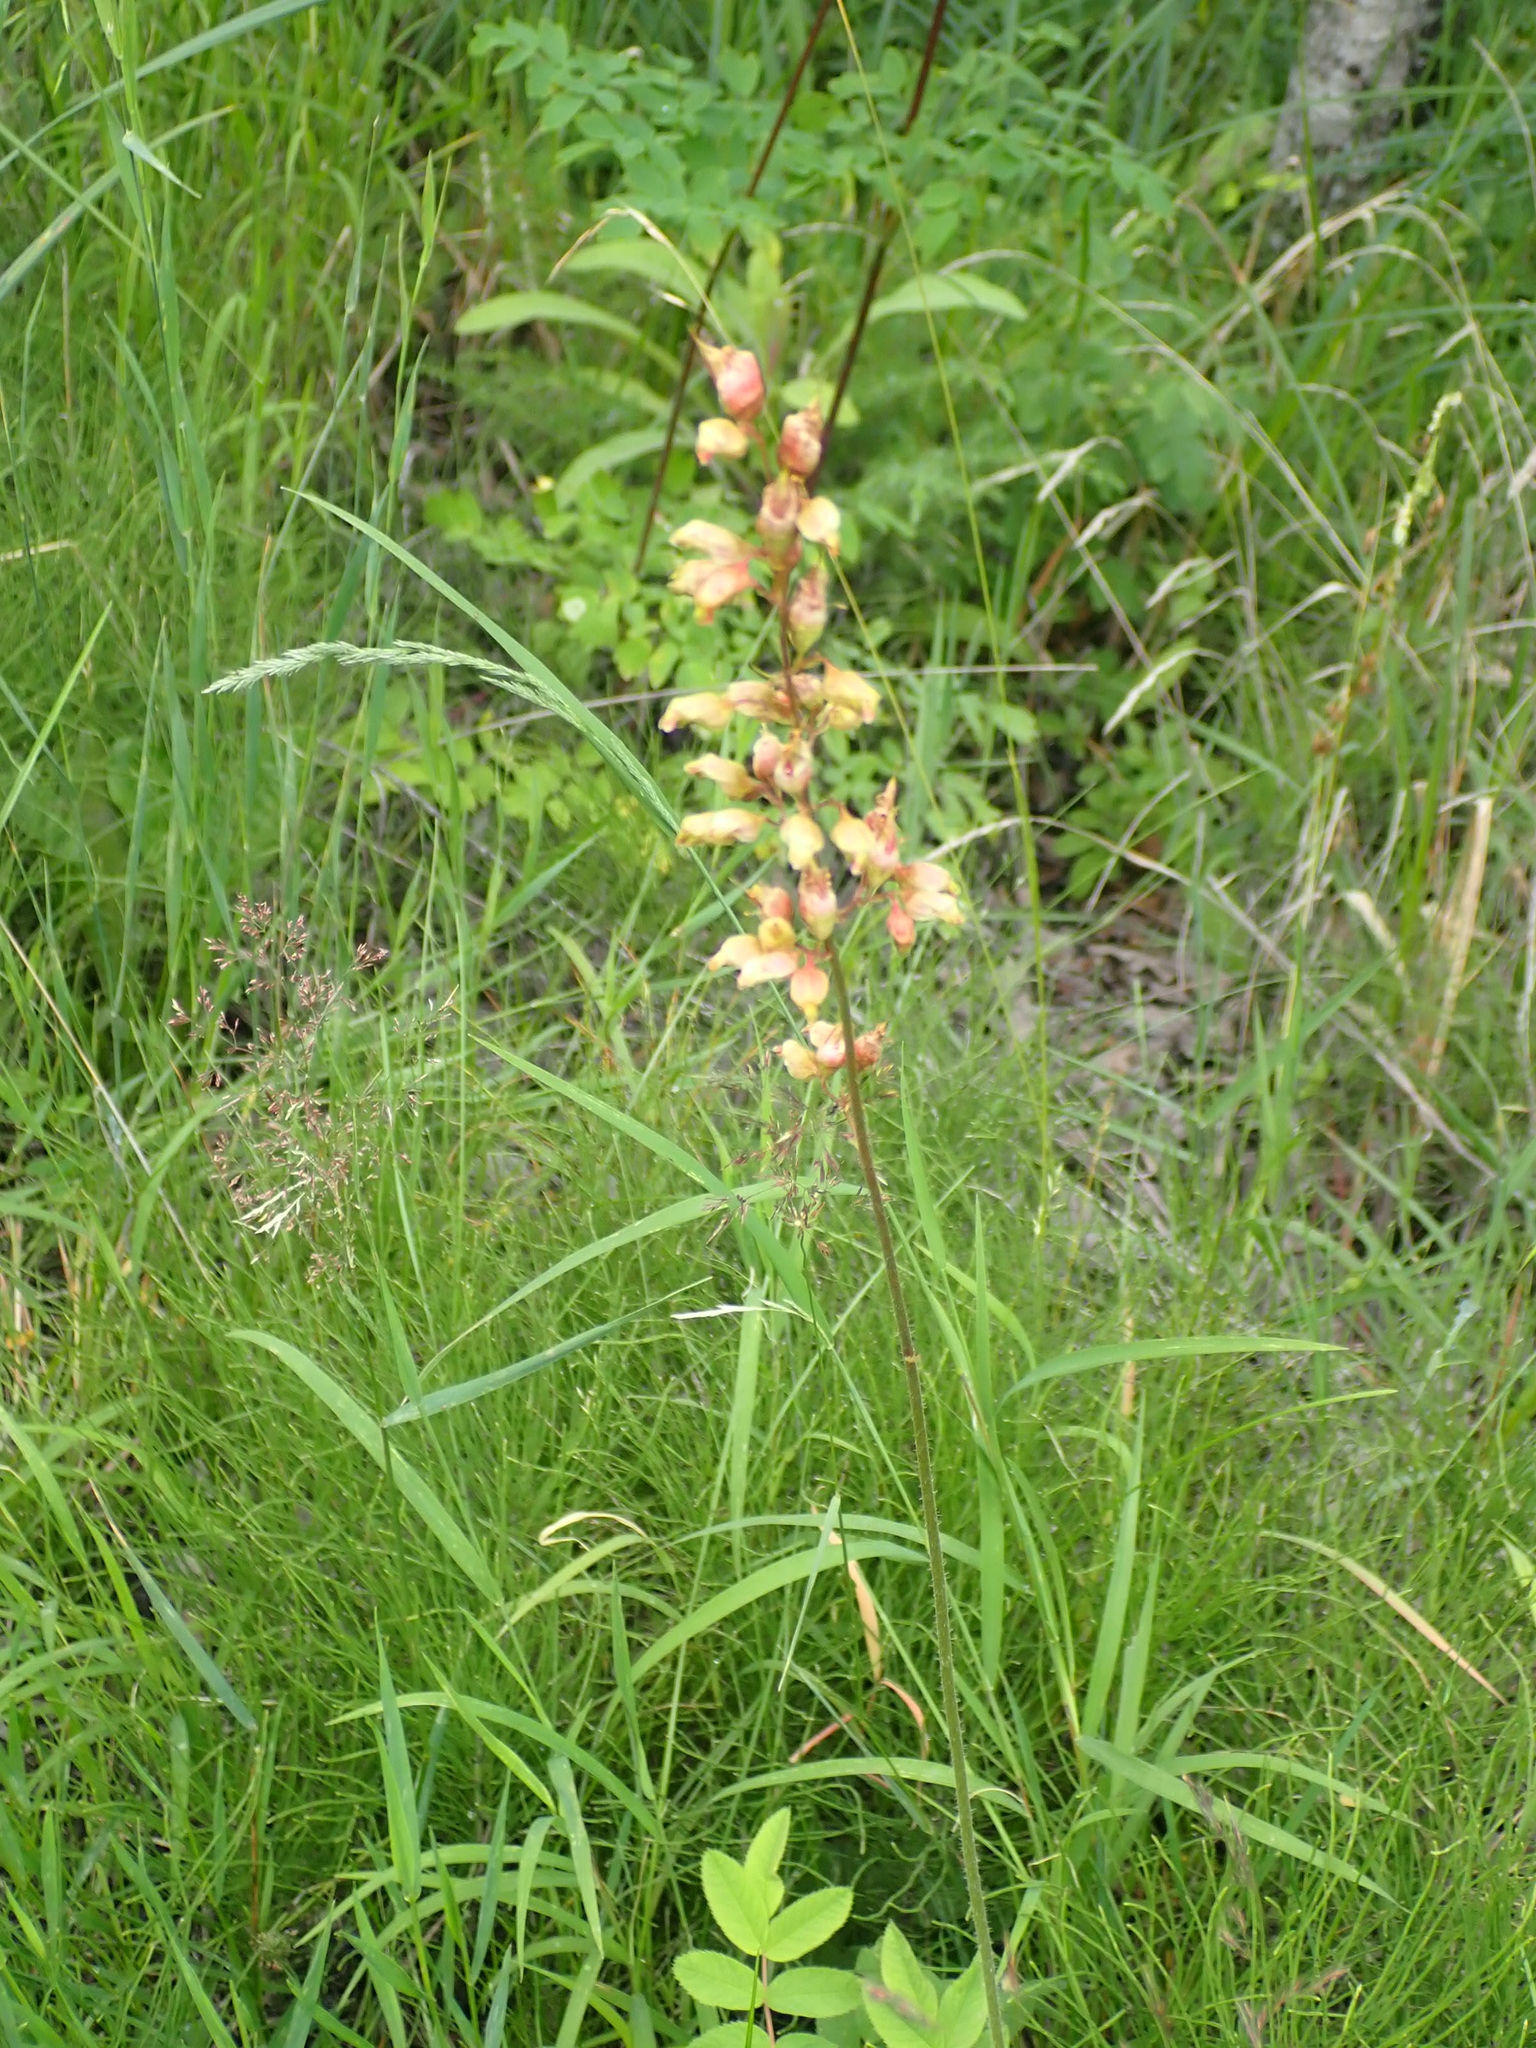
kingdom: Plantae
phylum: Tracheophyta
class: Magnoliopsida
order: Saxifragales
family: Saxifragaceae
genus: Heuchera
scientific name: Heuchera richardsonii
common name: Richardson's alumroot
